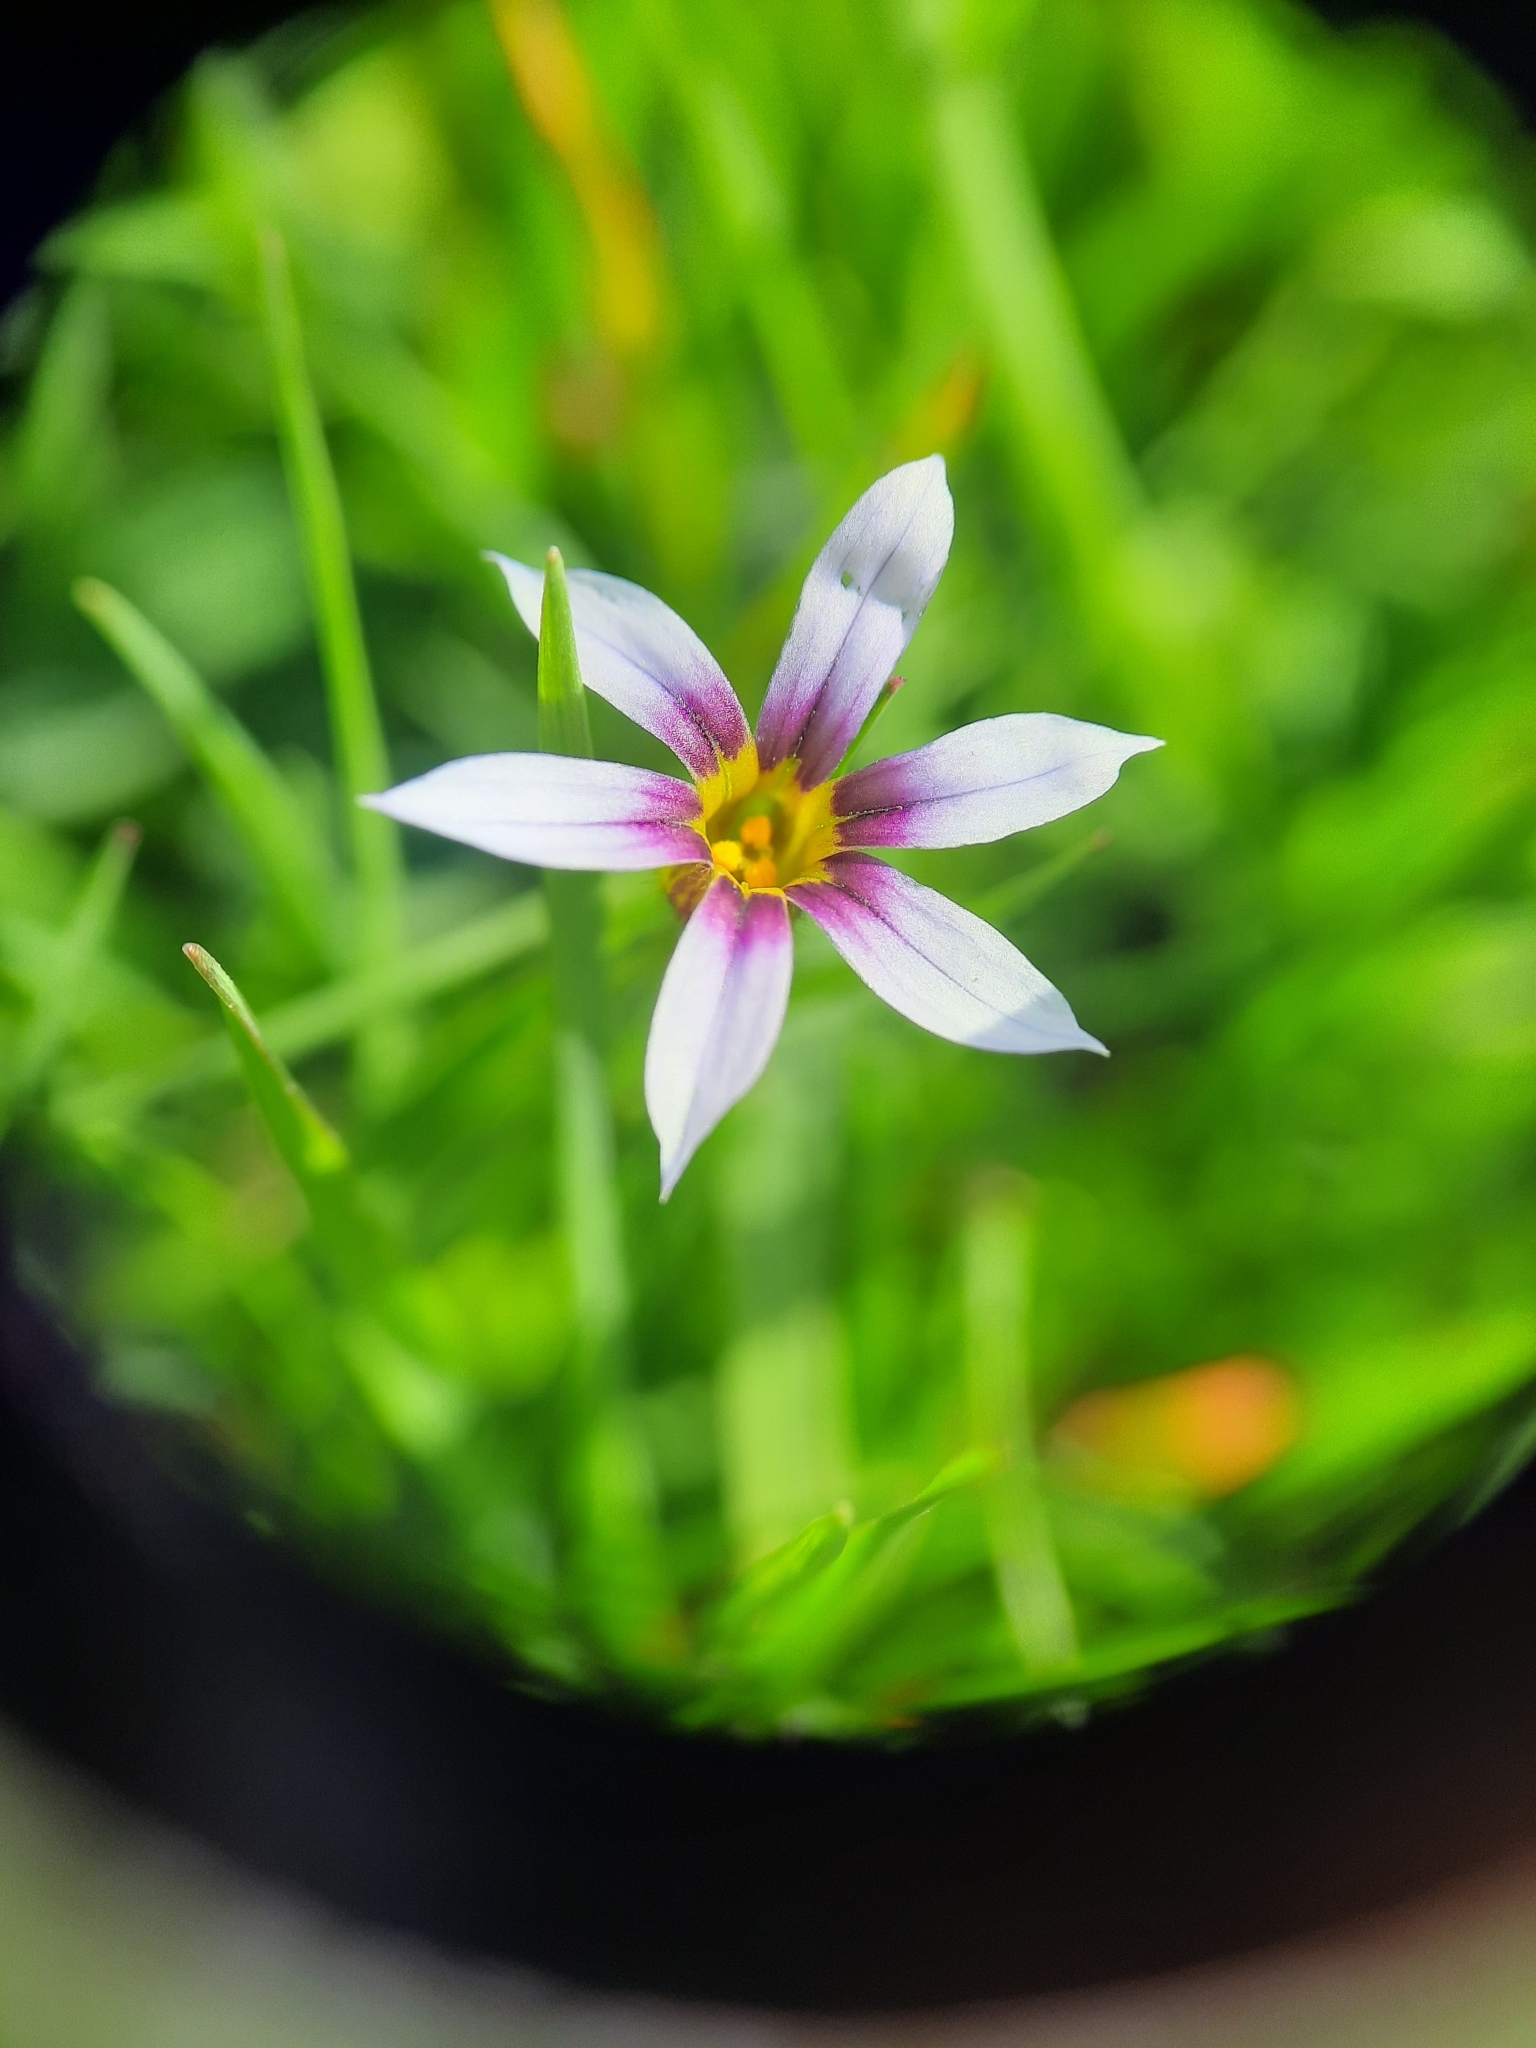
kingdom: Plantae
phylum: Tracheophyta
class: Liliopsida
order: Asparagales
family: Iridaceae
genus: Sisyrinchium
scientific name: Sisyrinchium micranthum
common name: Bermuda pigroot
